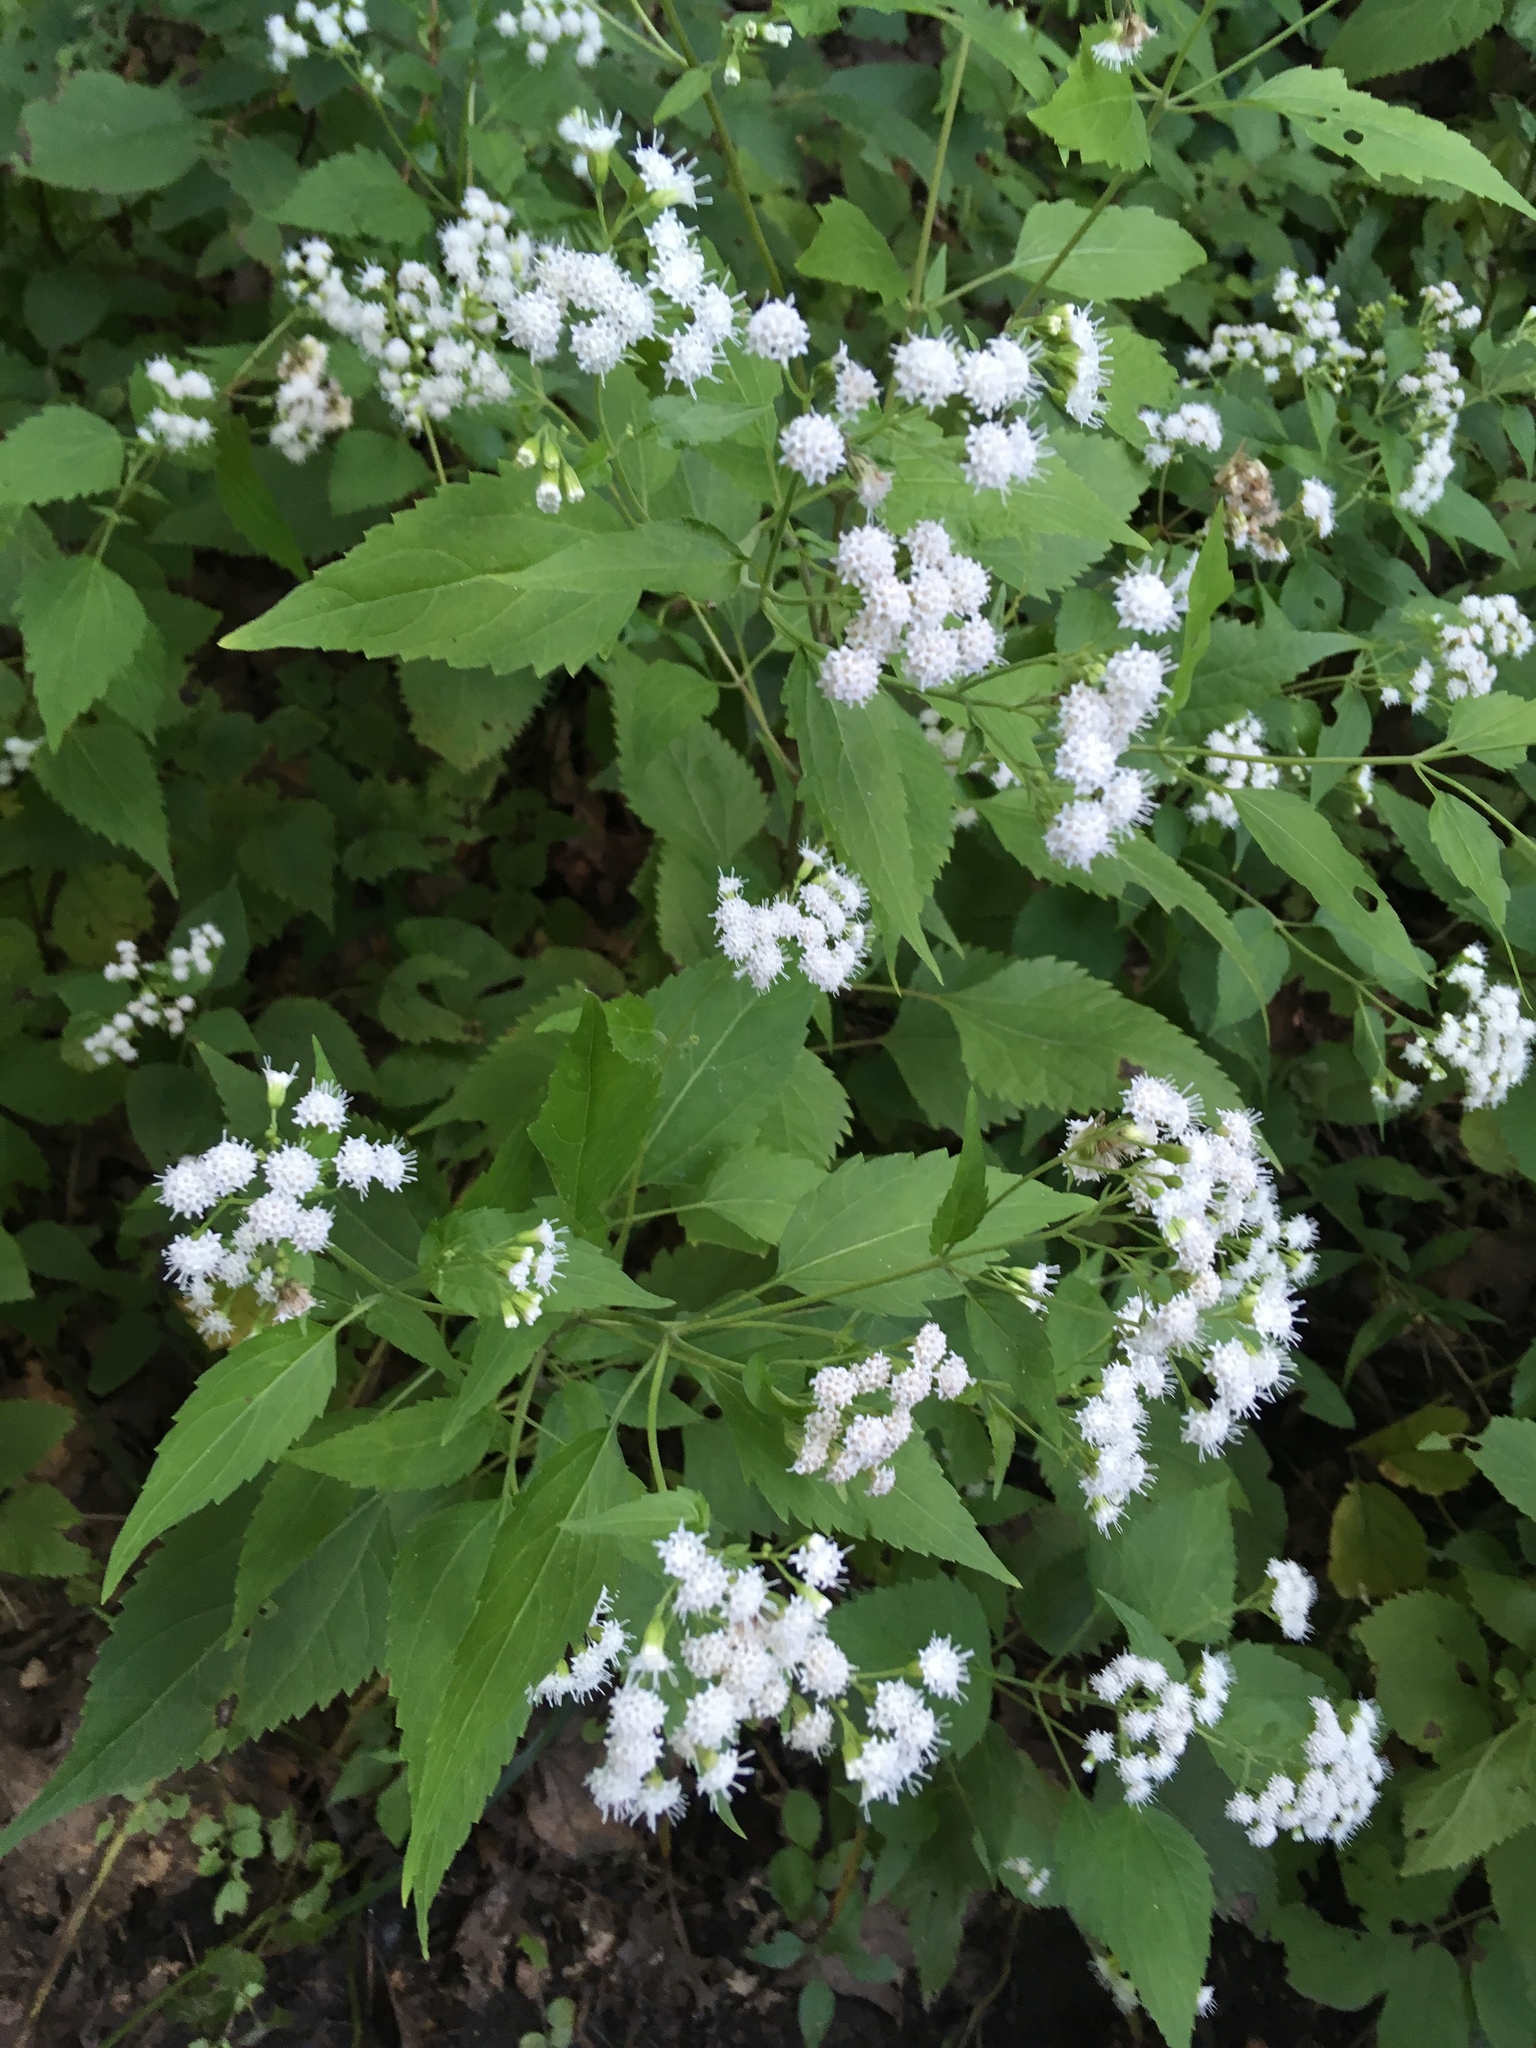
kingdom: Plantae
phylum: Tracheophyta
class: Magnoliopsida
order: Asterales
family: Asteraceae
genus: Ageratina
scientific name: Ageratina altissima
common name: White snakeroot
